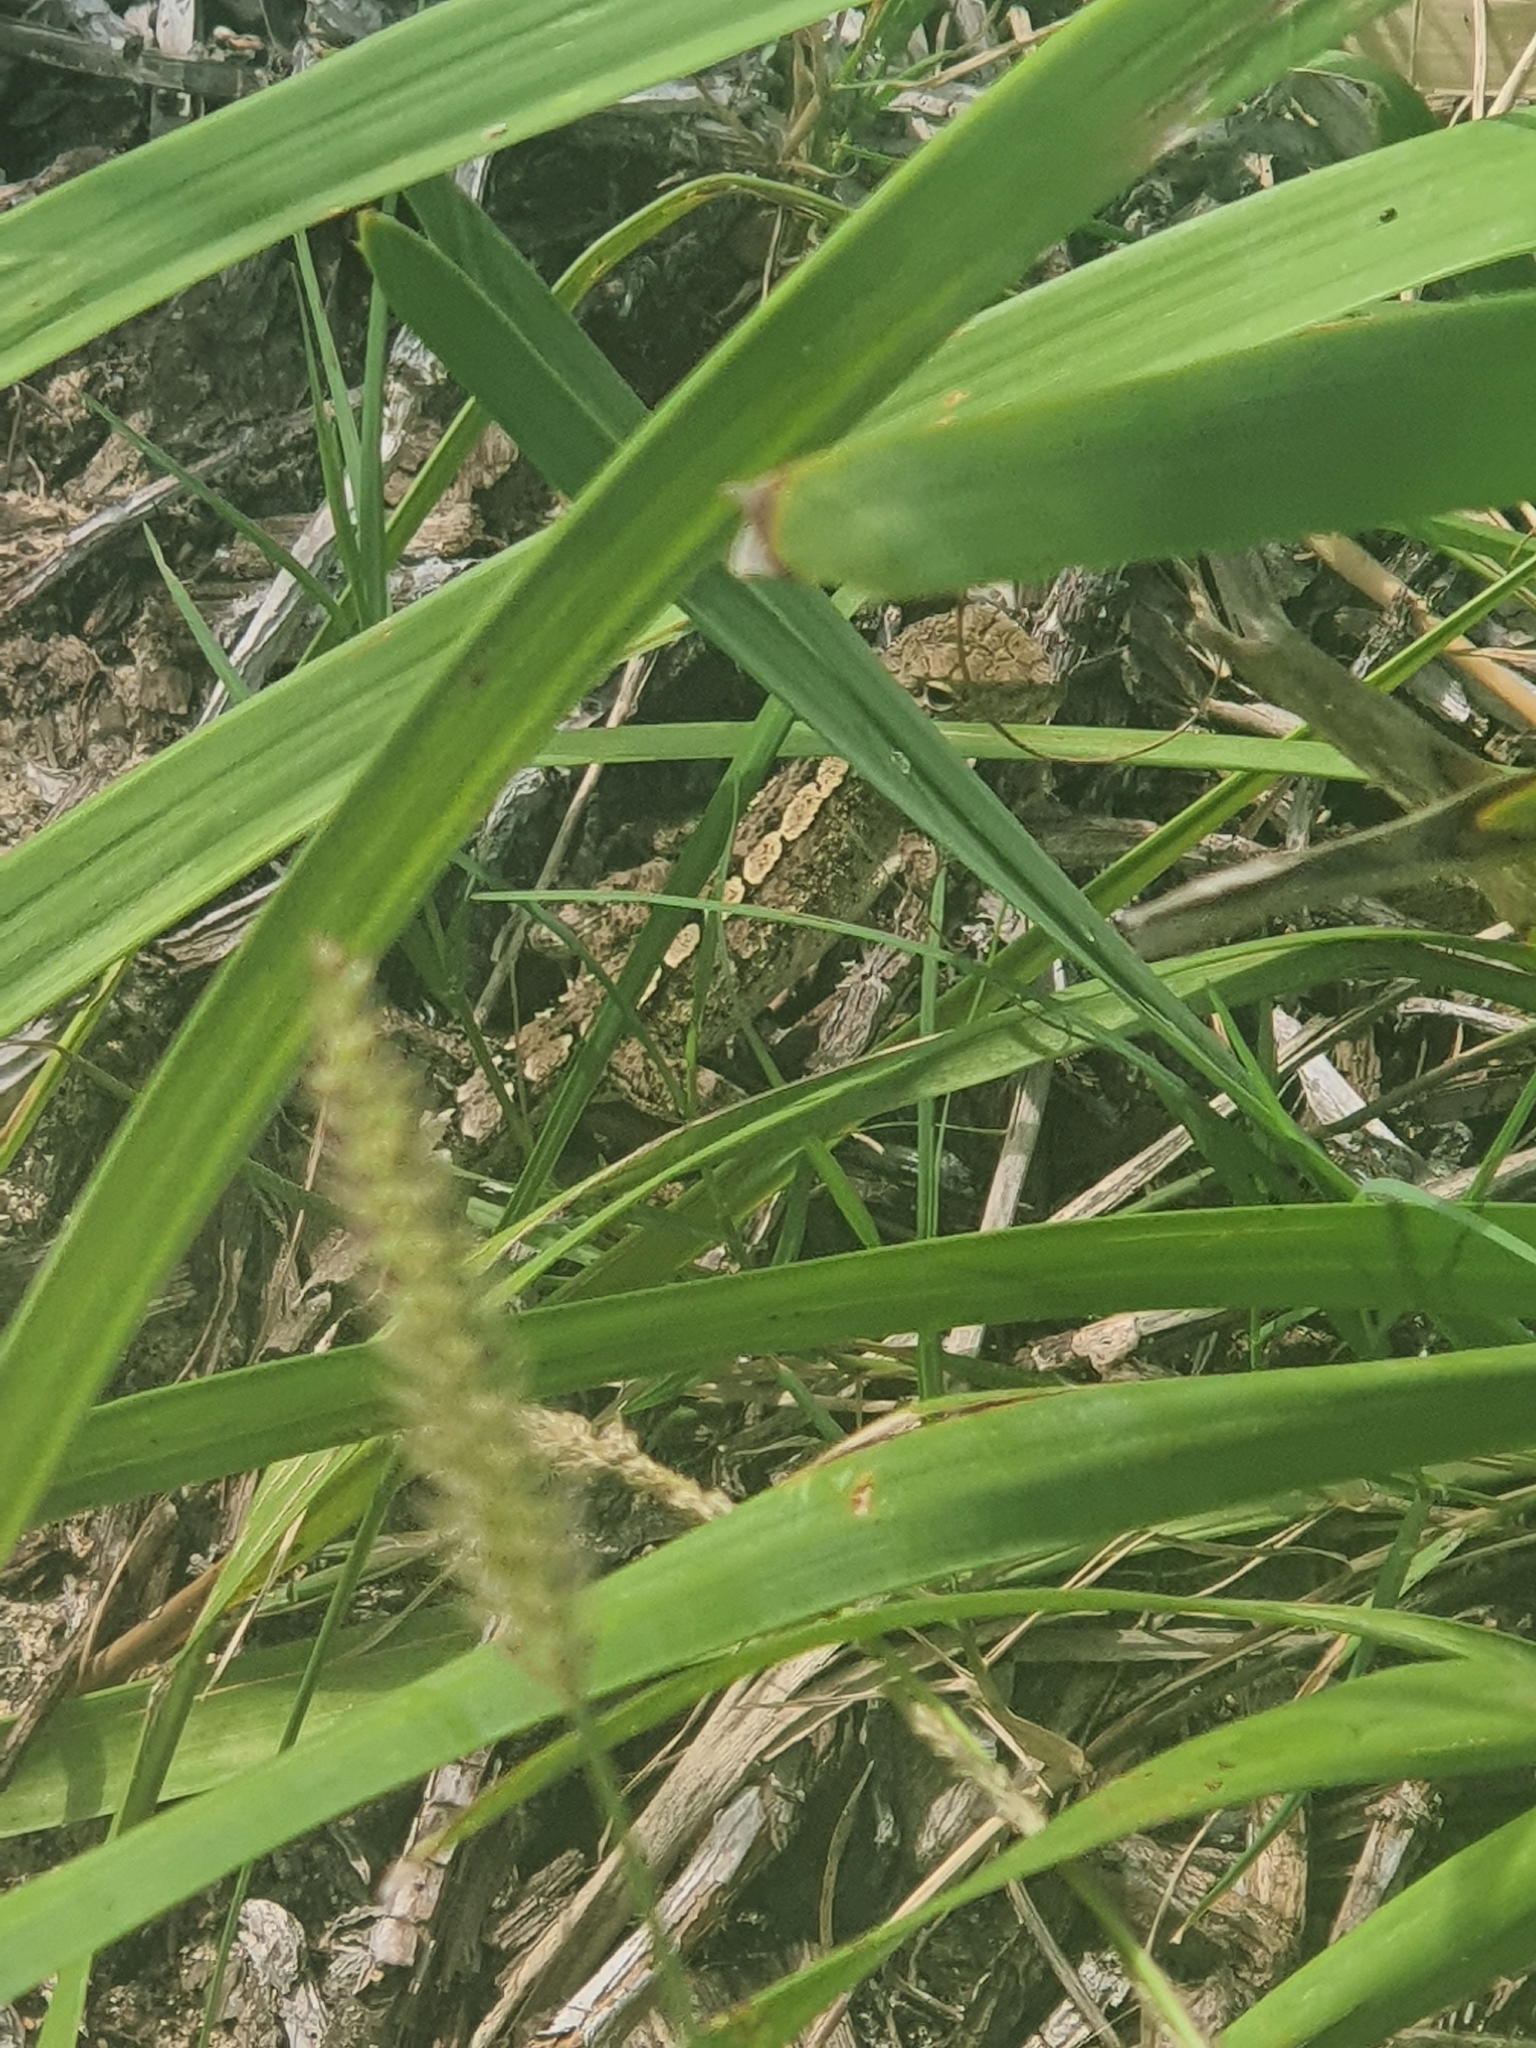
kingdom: Animalia
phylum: Chordata
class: Squamata
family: Agamidae
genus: Amphibolurus
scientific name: Amphibolurus muricatus
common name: Jacky lizard
